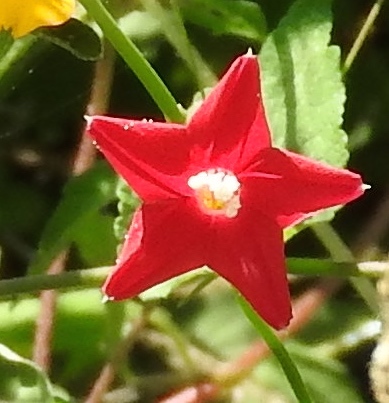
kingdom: Plantae
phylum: Tracheophyta
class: Magnoliopsida
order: Solanales
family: Convolvulaceae
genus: Ipomoea
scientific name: Ipomoea quamoclit
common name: Cypress vine
